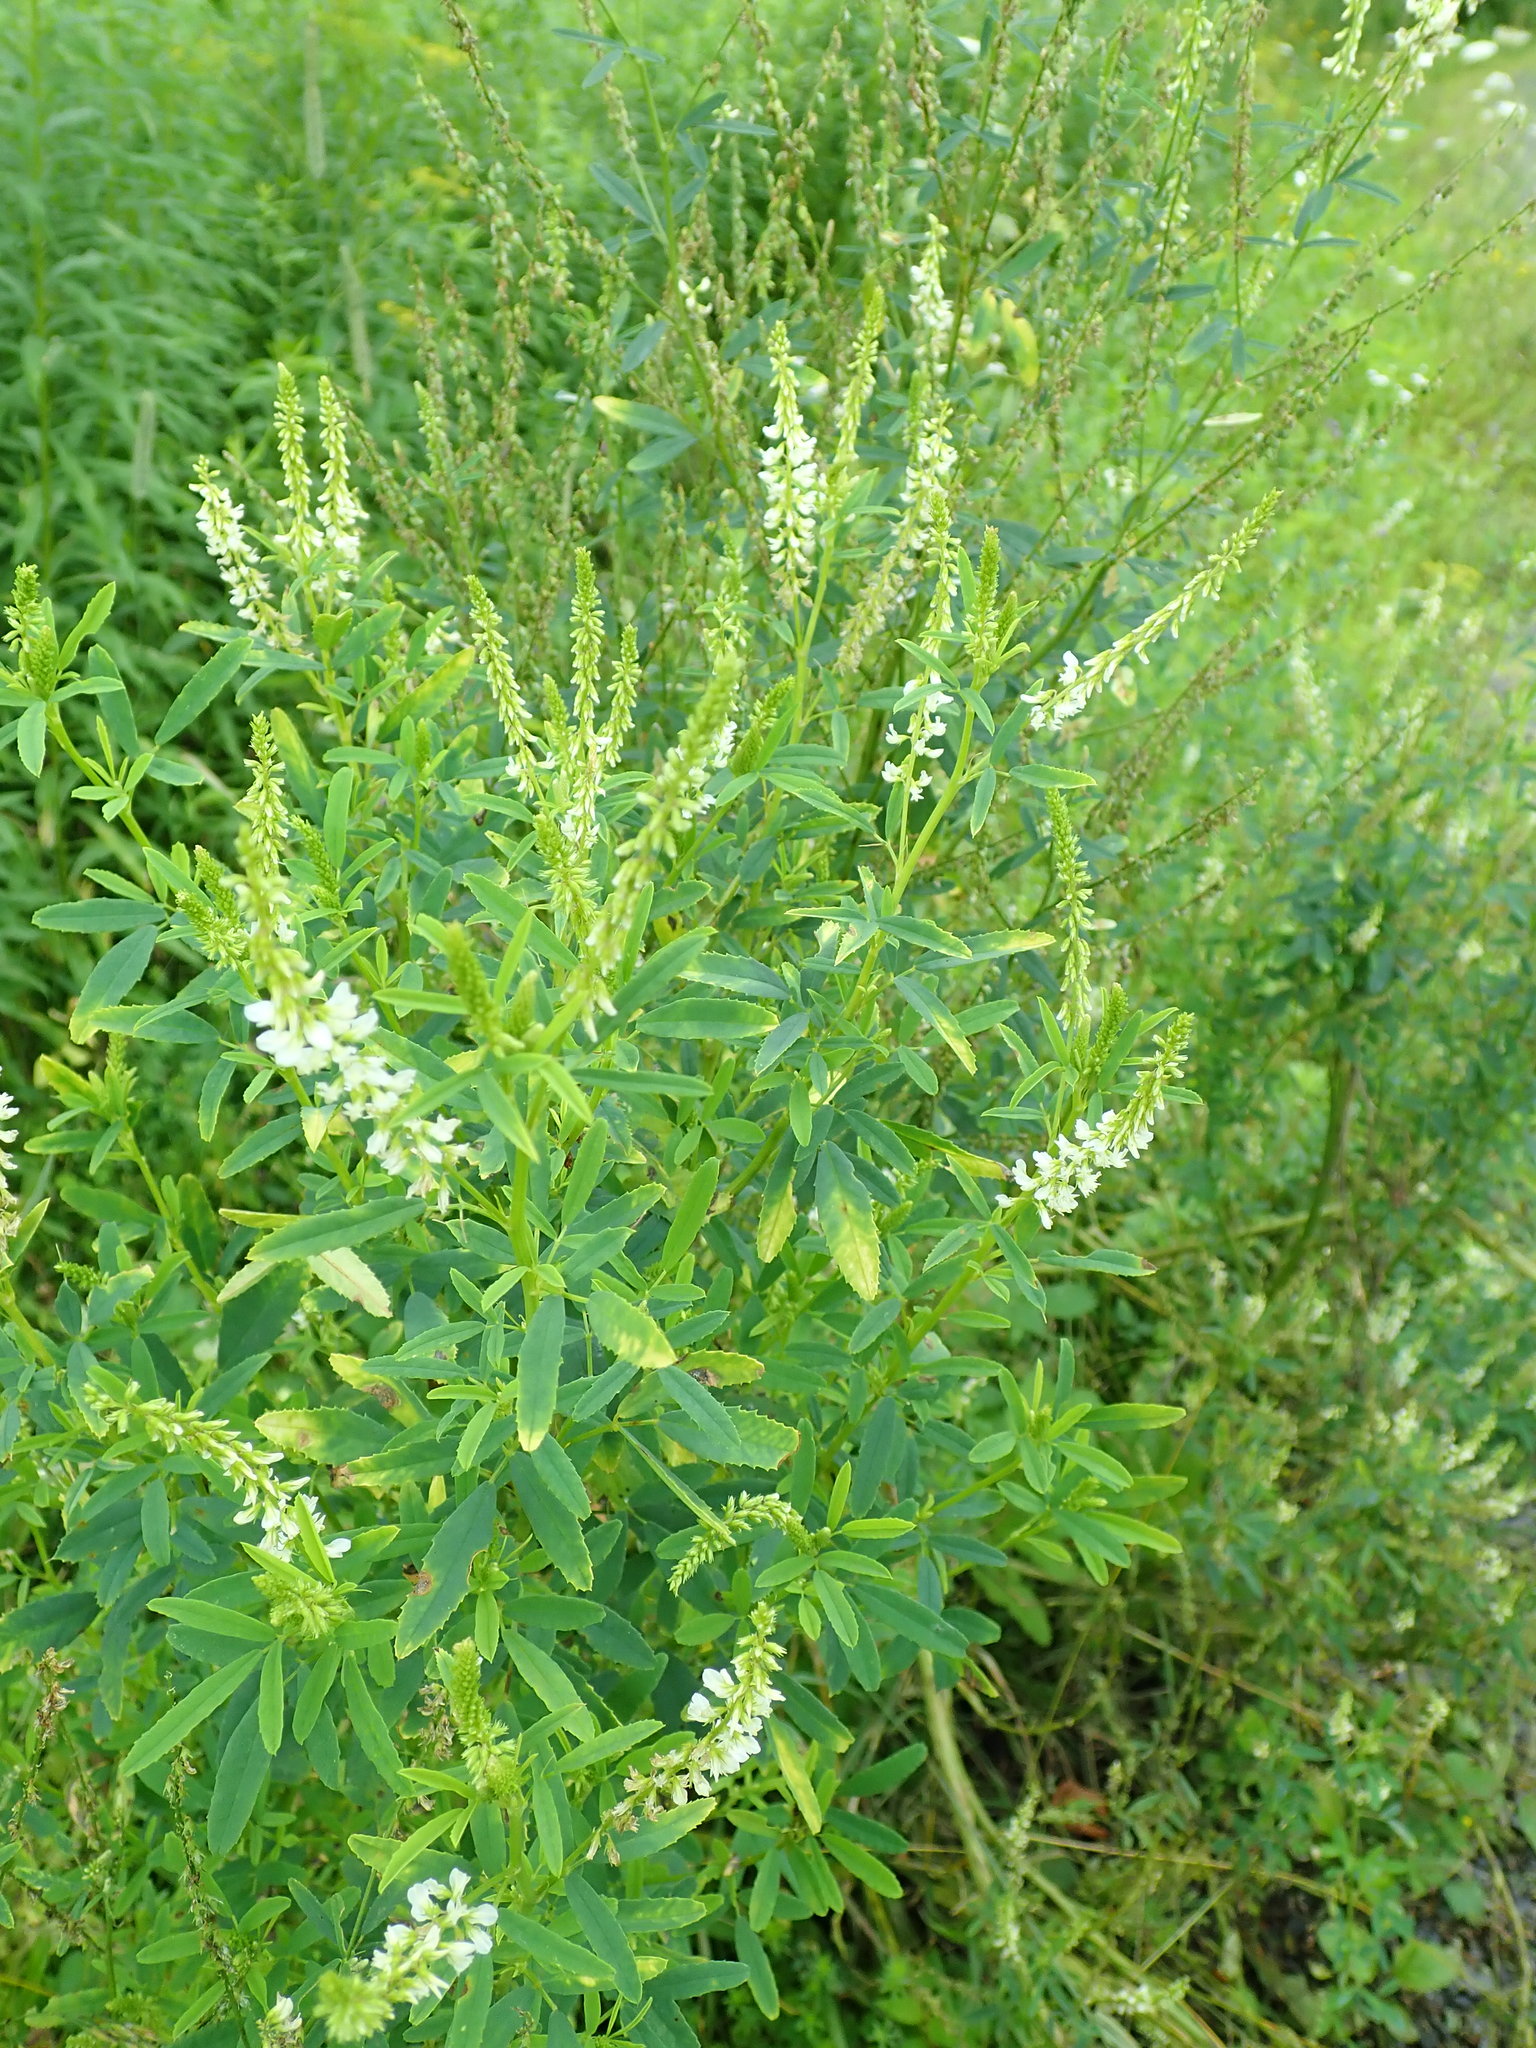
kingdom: Plantae
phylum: Tracheophyta
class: Magnoliopsida
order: Fabales
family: Fabaceae
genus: Melilotus
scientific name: Melilotus albus
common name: White melilot
